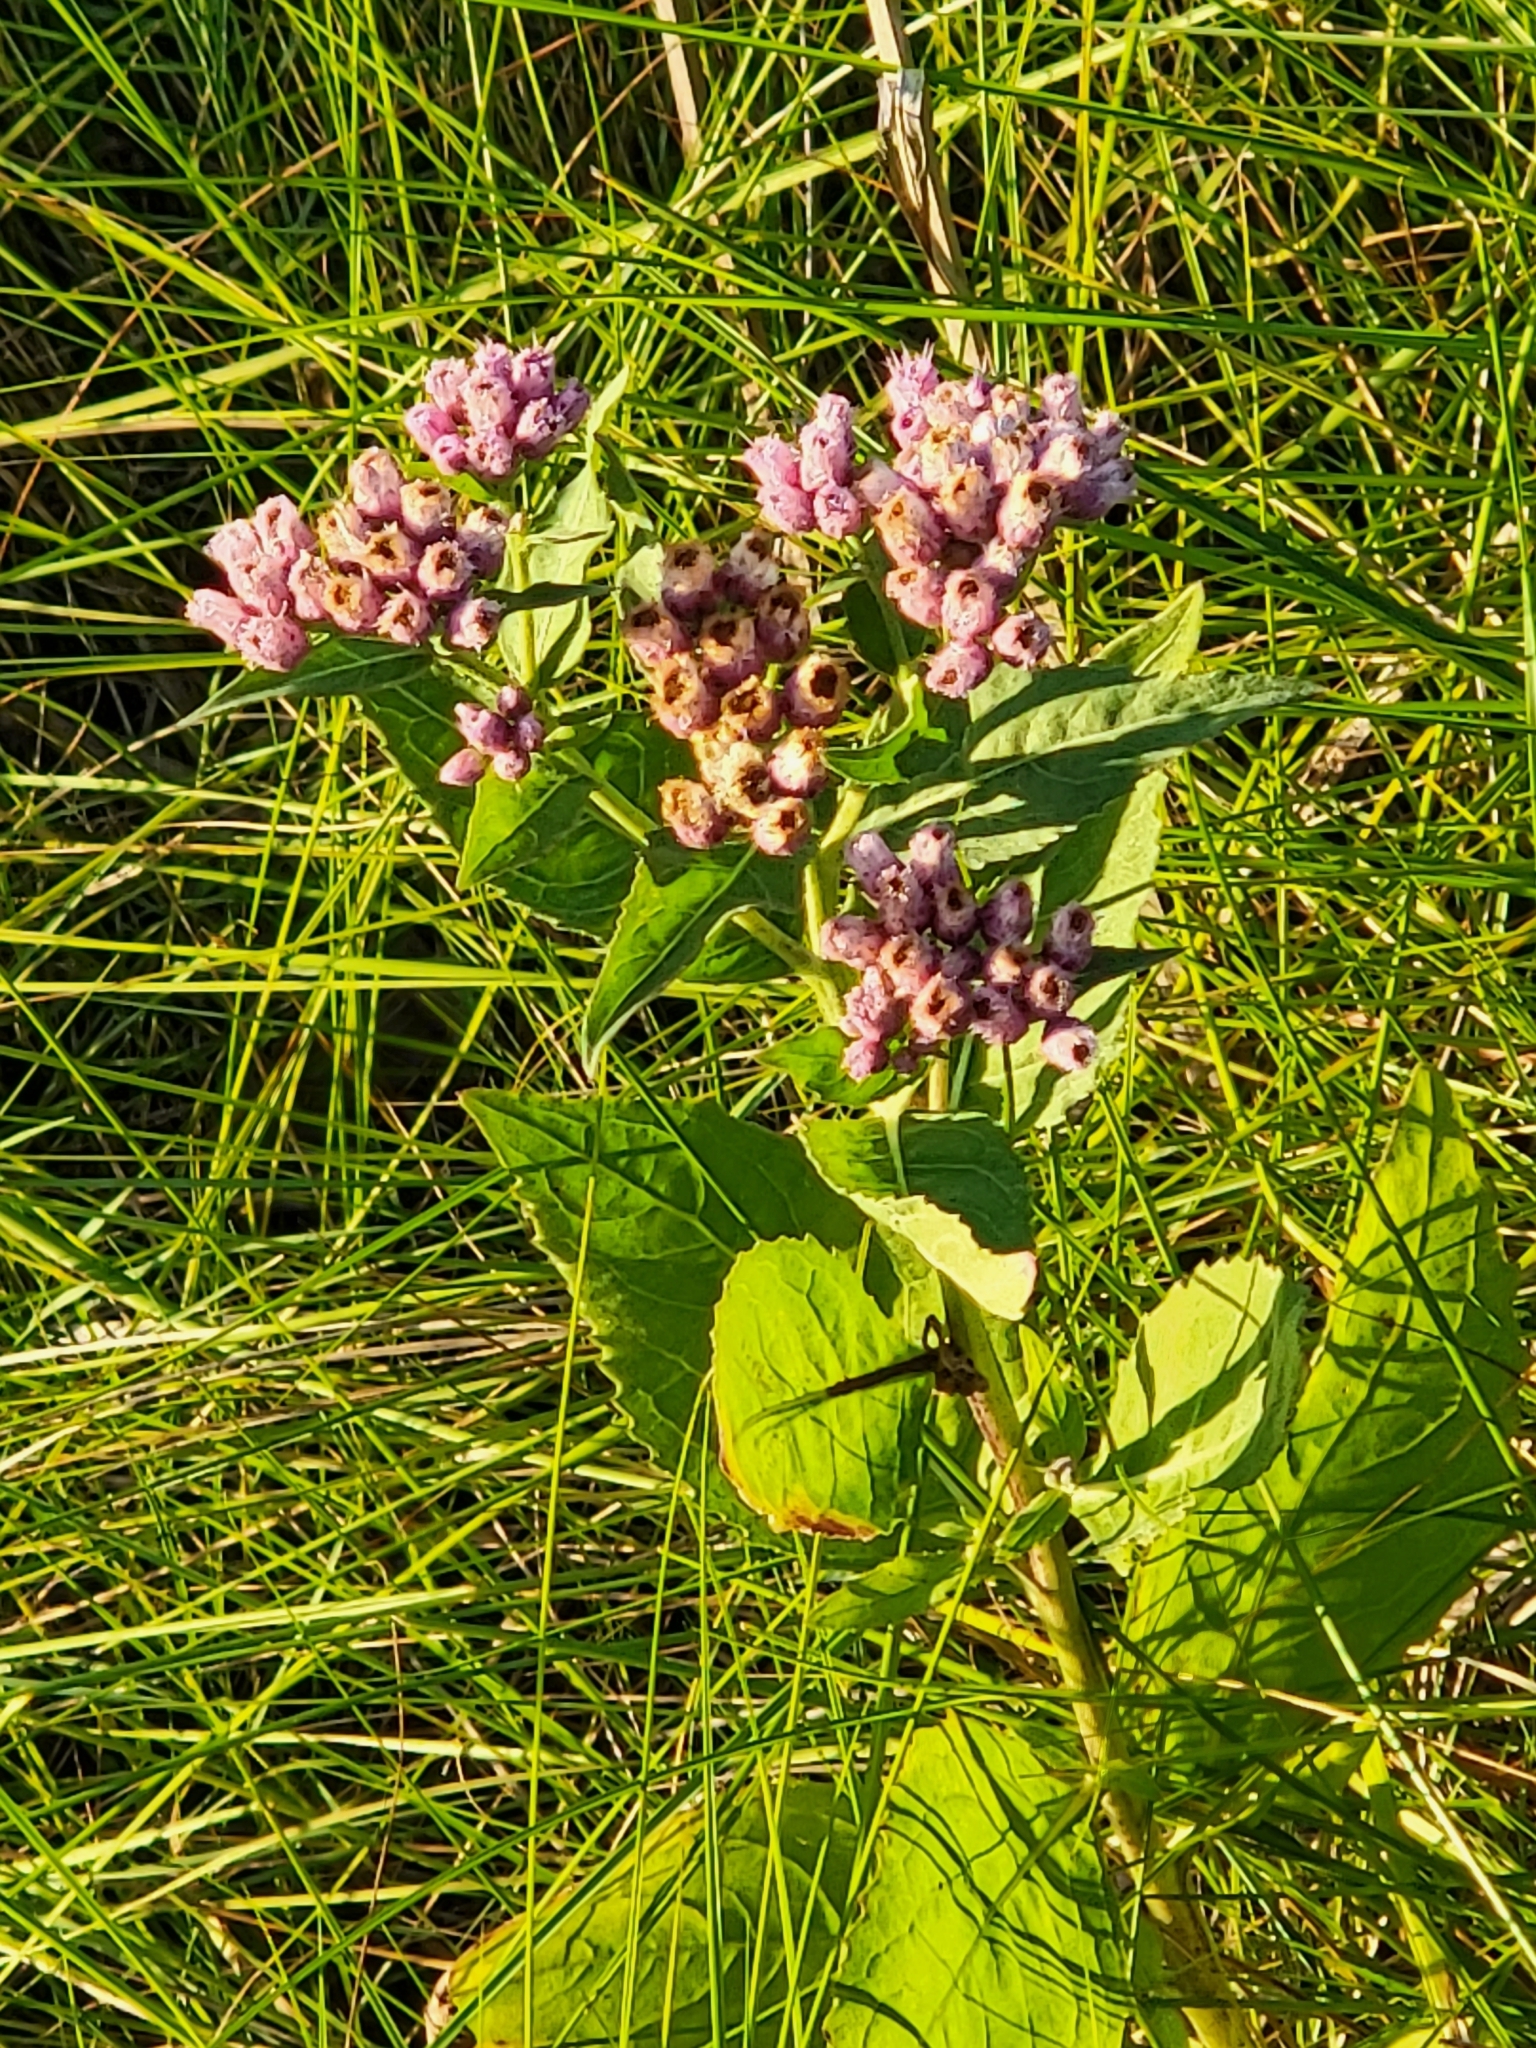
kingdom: Plantae
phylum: Tracheophyta
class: Magnoliopsida
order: Asterales
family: Asteraceae
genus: Pluchea
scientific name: Pluchea odorata
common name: Saltmarsh fleabane
